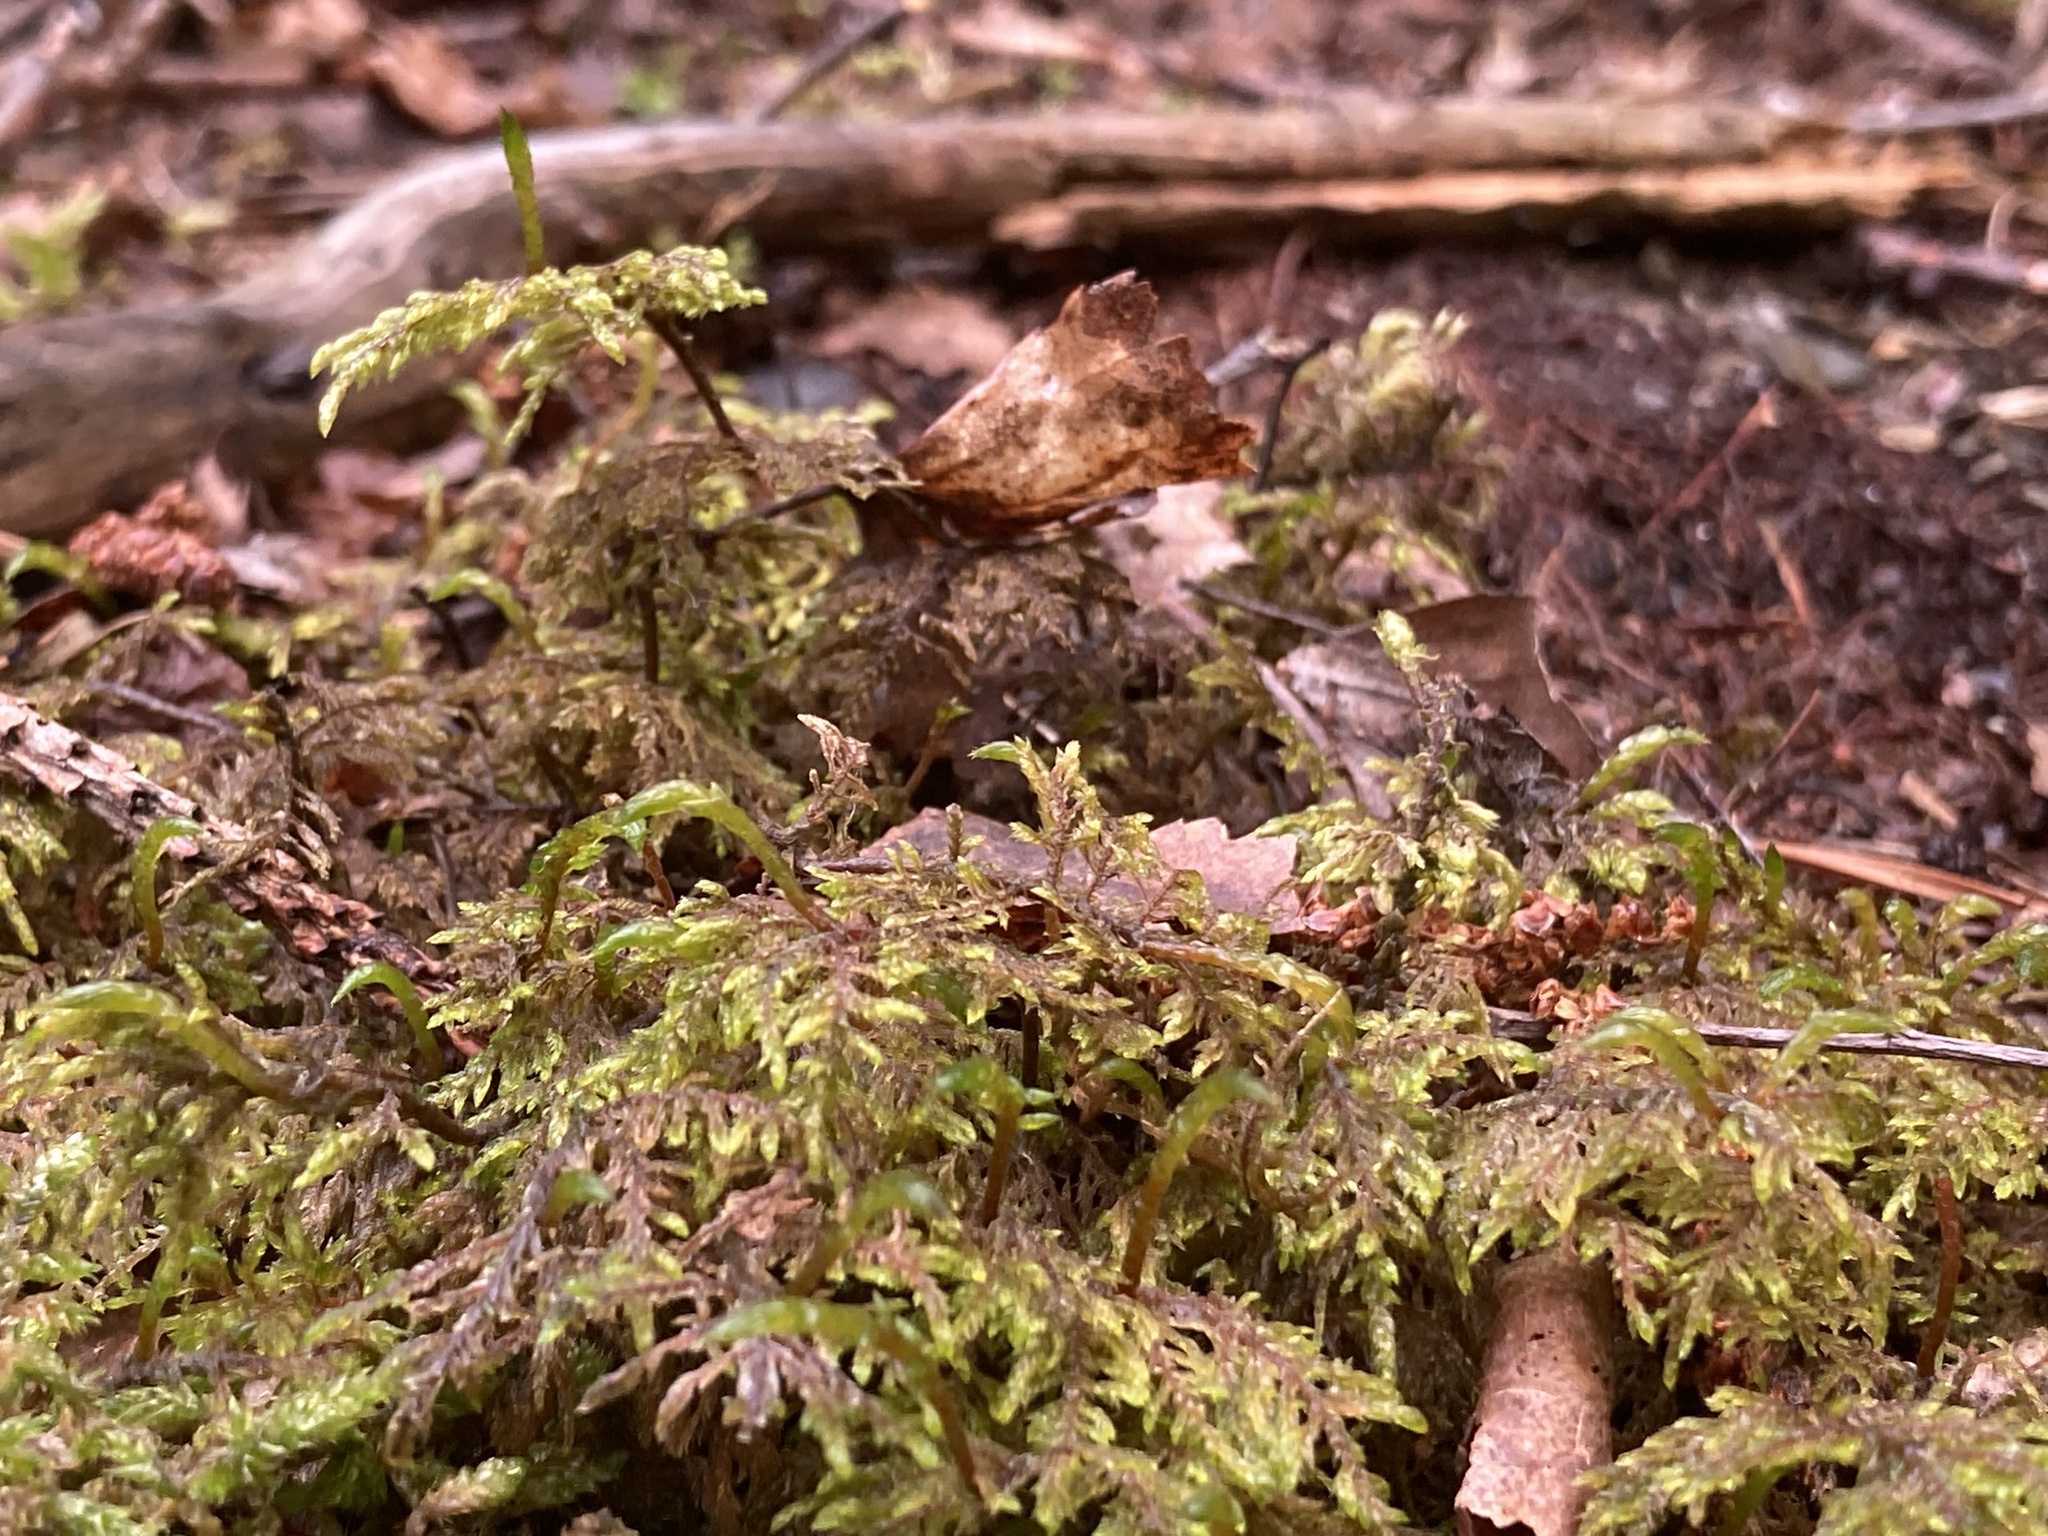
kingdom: Plantae
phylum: Bryophyta
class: Bryopsida
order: Hypnales
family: Hylocomiaceae
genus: Hylocomium
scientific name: Hylocomium splendens
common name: Stairstep moss
